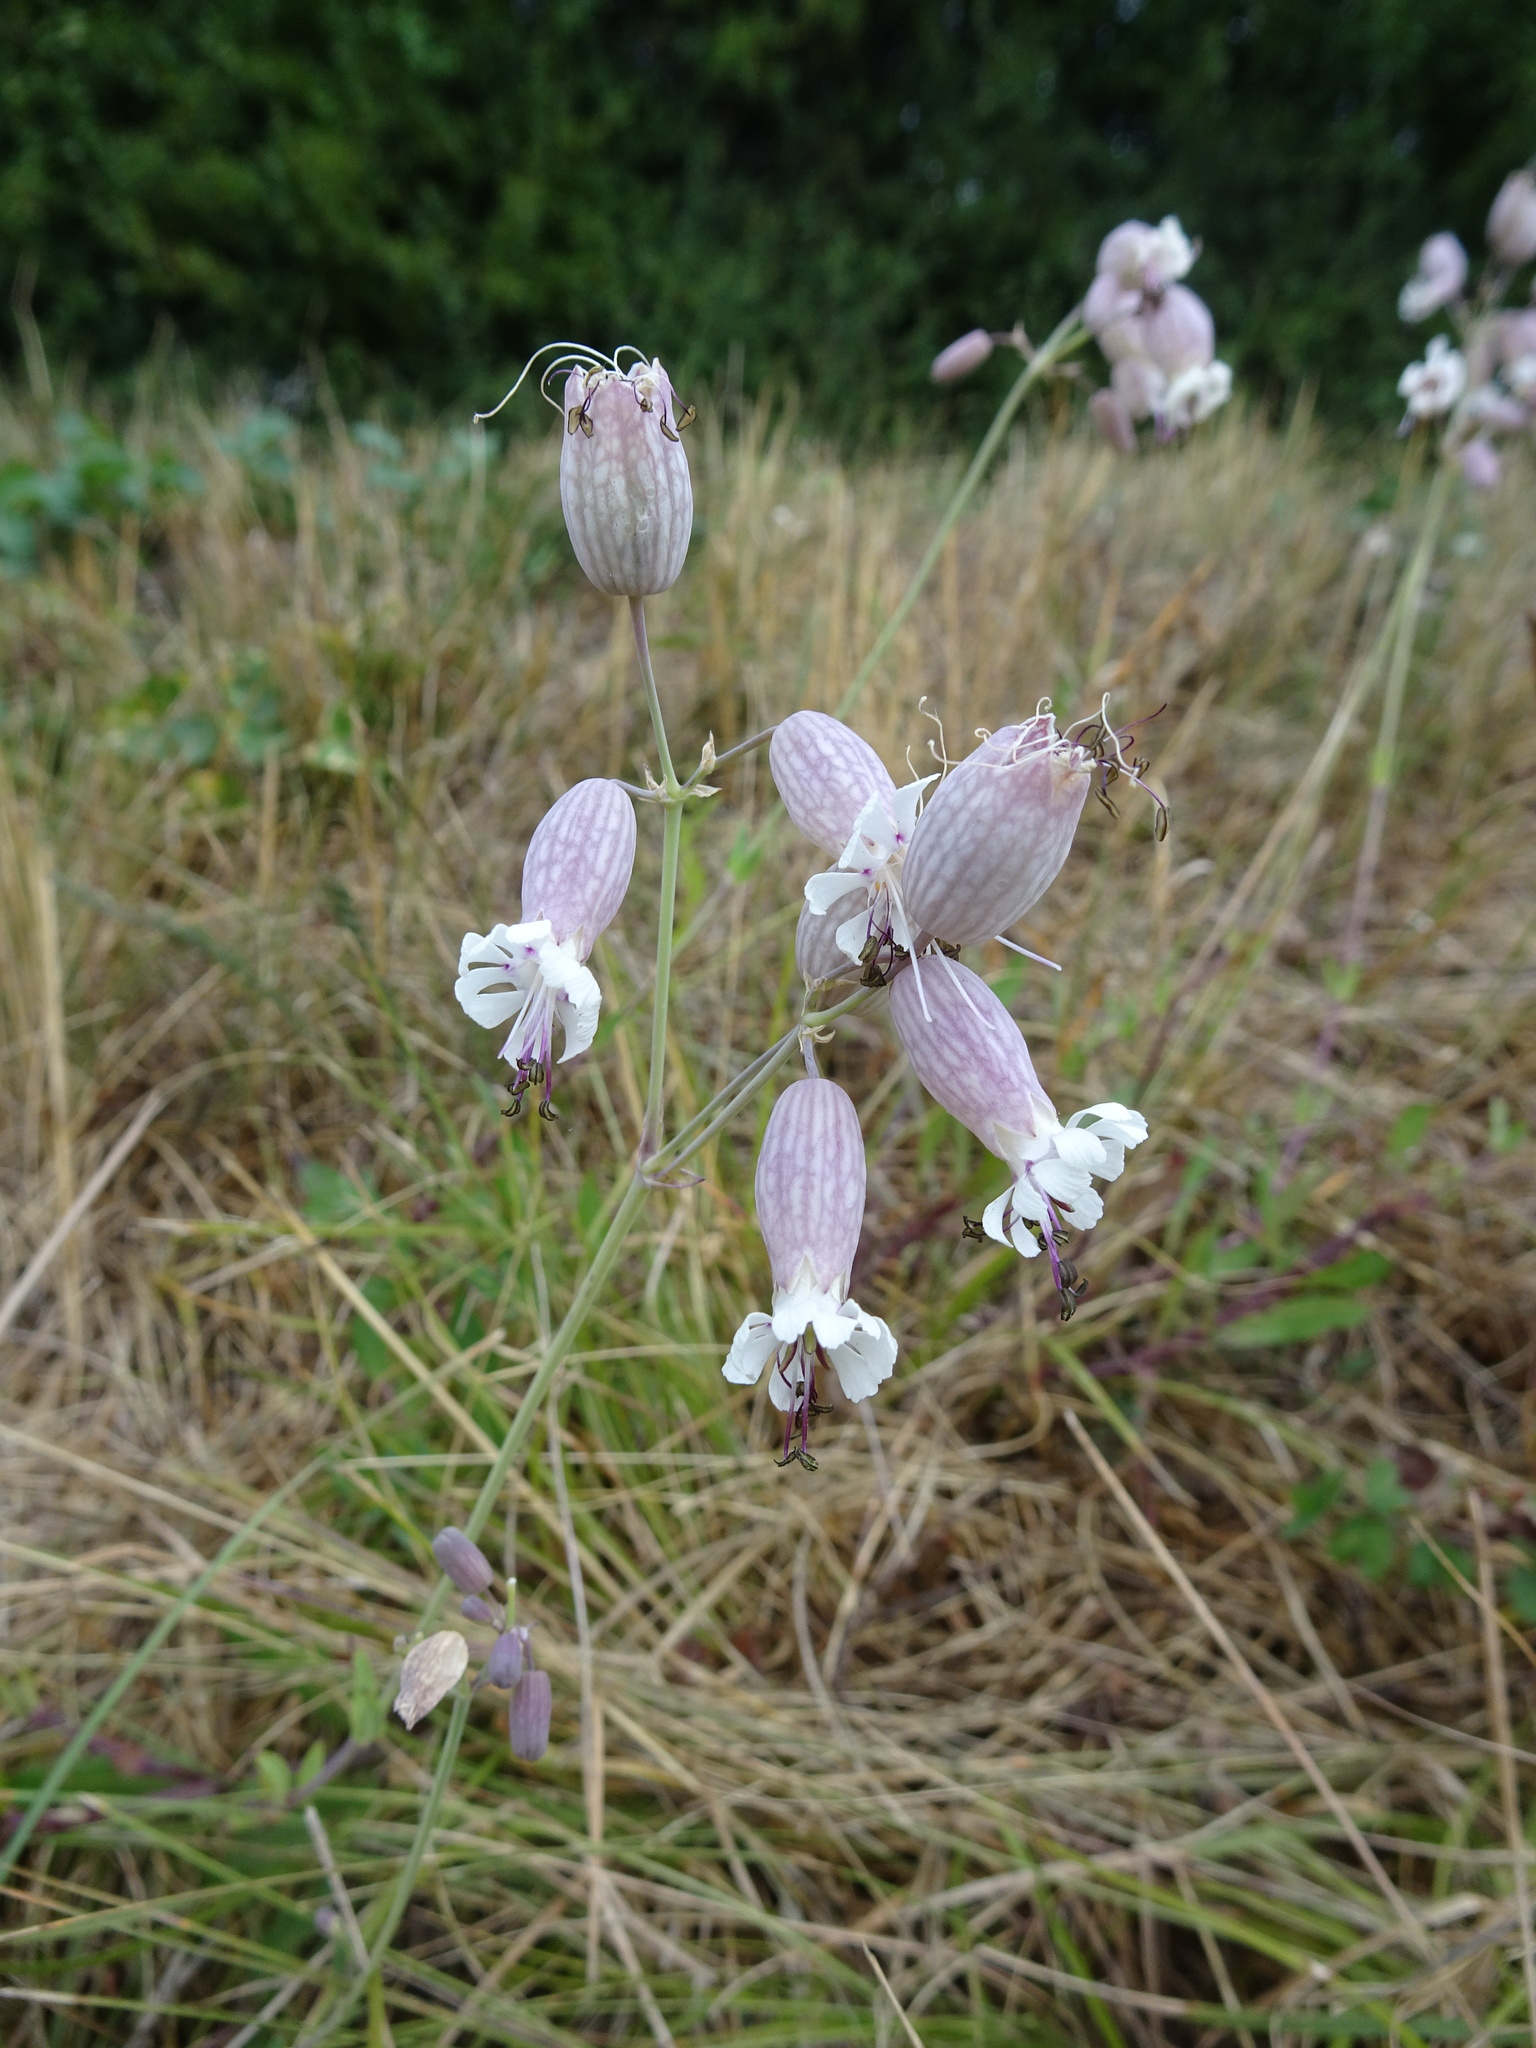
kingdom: Plantae
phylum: Tracheophyta
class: Magnoliopsida
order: Caryophyllales
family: Caryophyllaceae
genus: Silene
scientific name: Silene vulgaris
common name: Bladder campion
